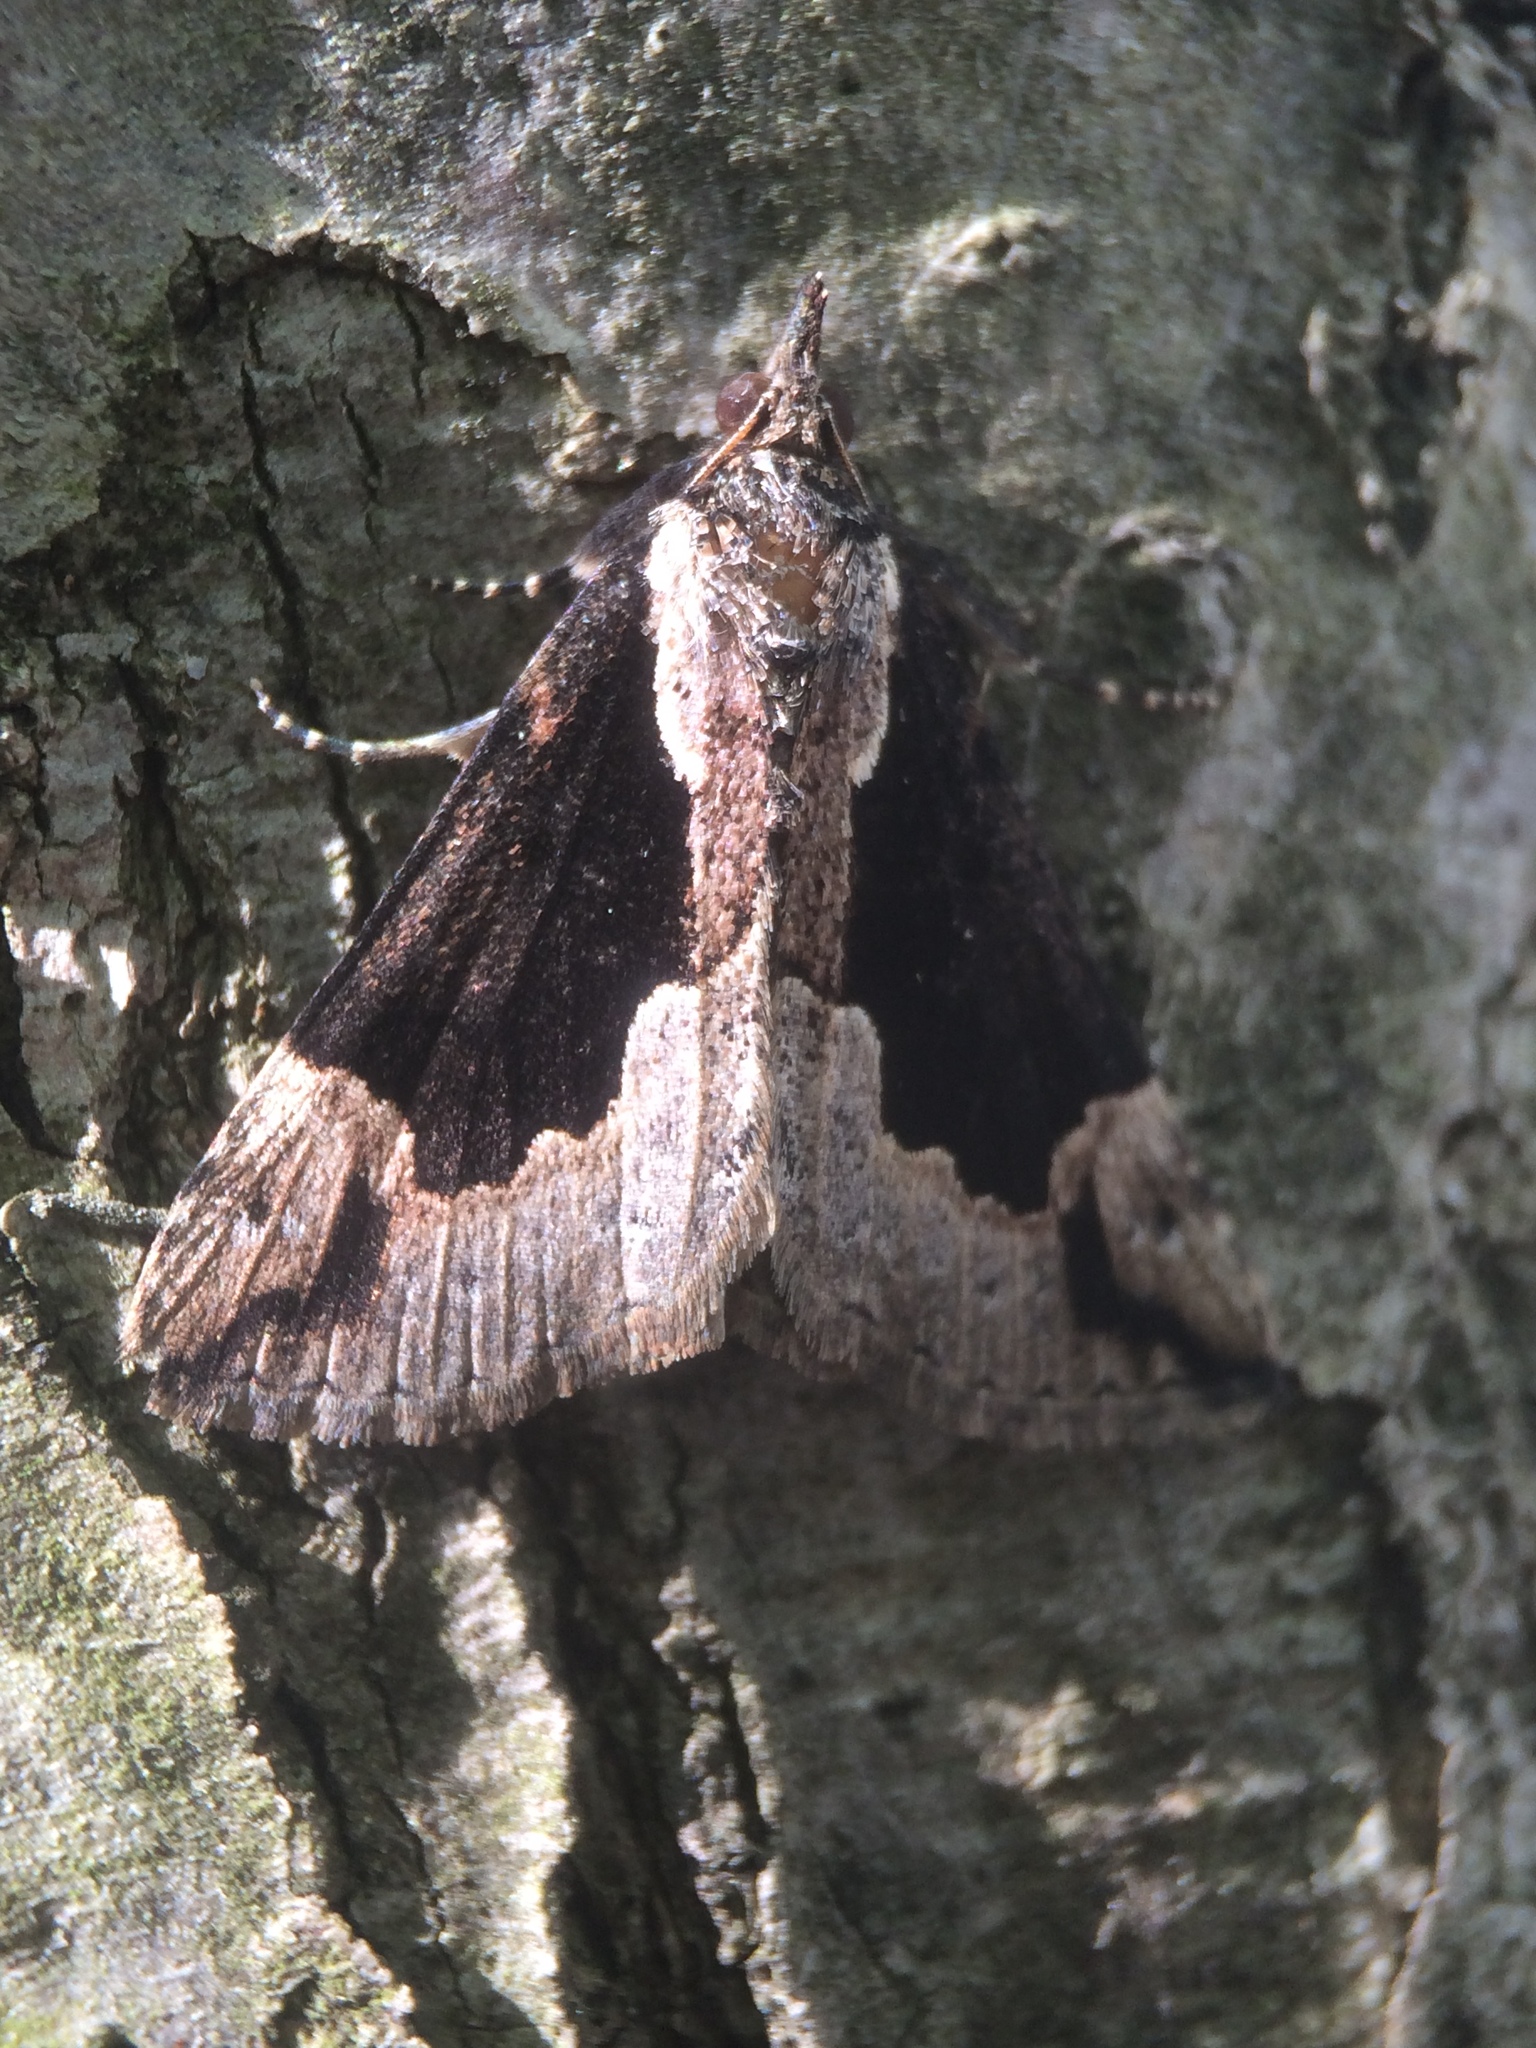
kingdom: Animalia
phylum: Arthropoda
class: Insecta
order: Lepidoptera
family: Erebidae
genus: Hypena
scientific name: Hypena baltimoralis
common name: Baltimore snout
